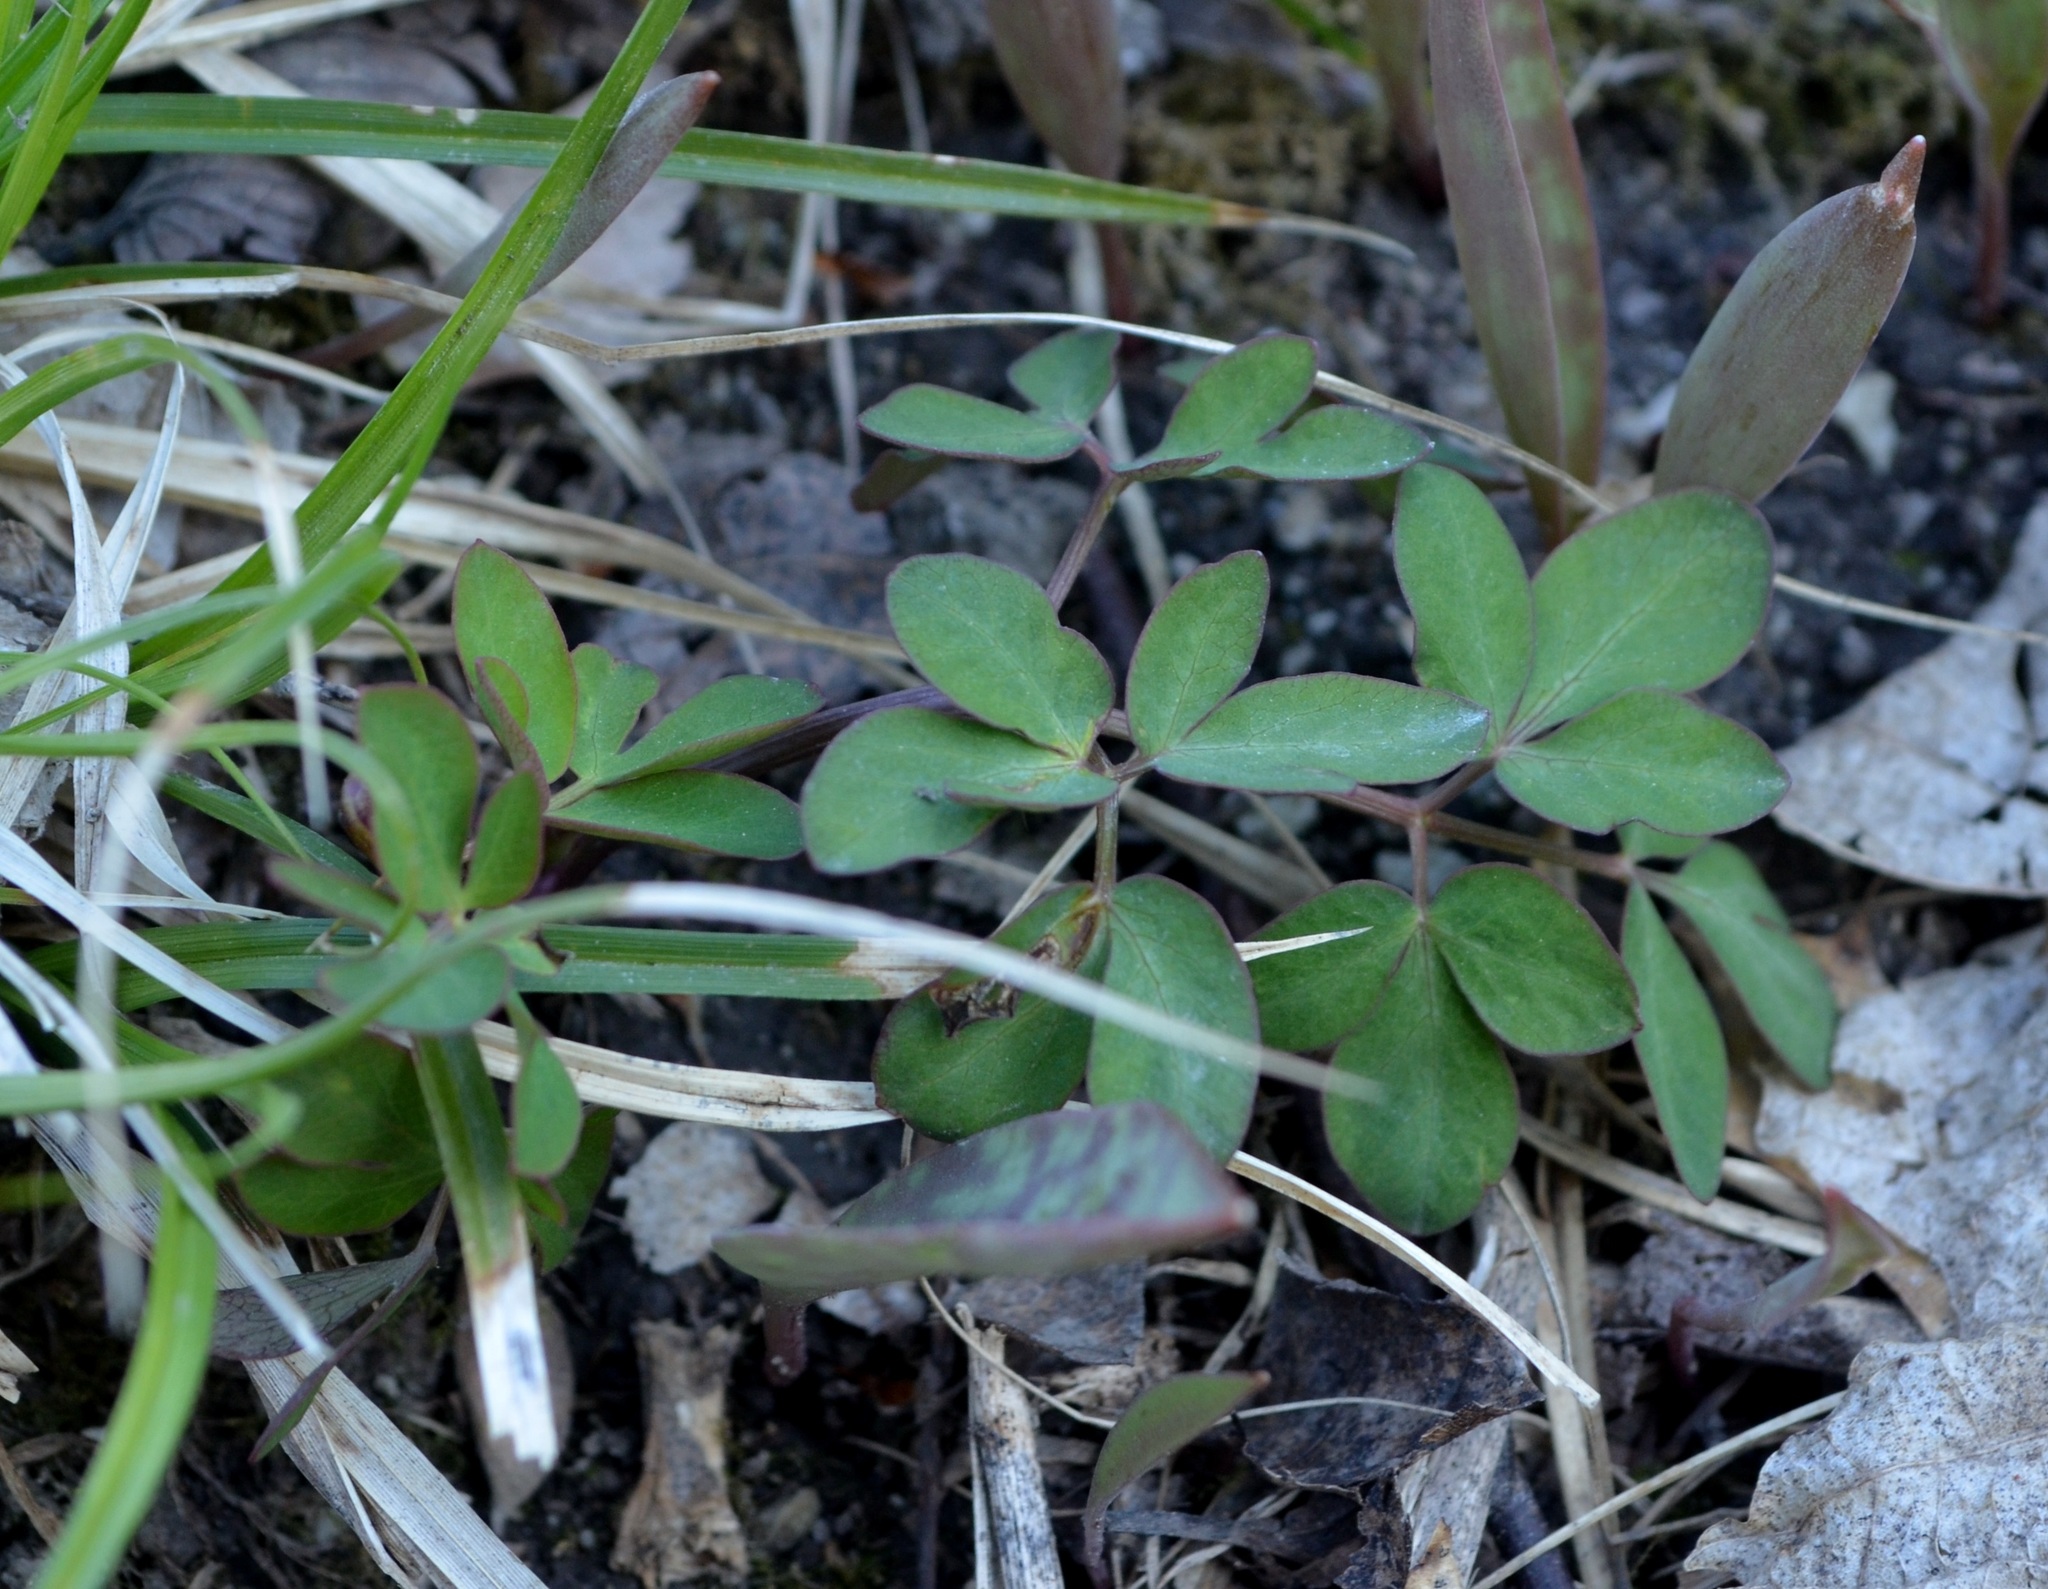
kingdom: Plantae
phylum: Tracheophyta
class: Magnoliopsida
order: Apiales
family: Apiaceae
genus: Taenidia
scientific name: Taenidia integerrima
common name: Golden alexander
